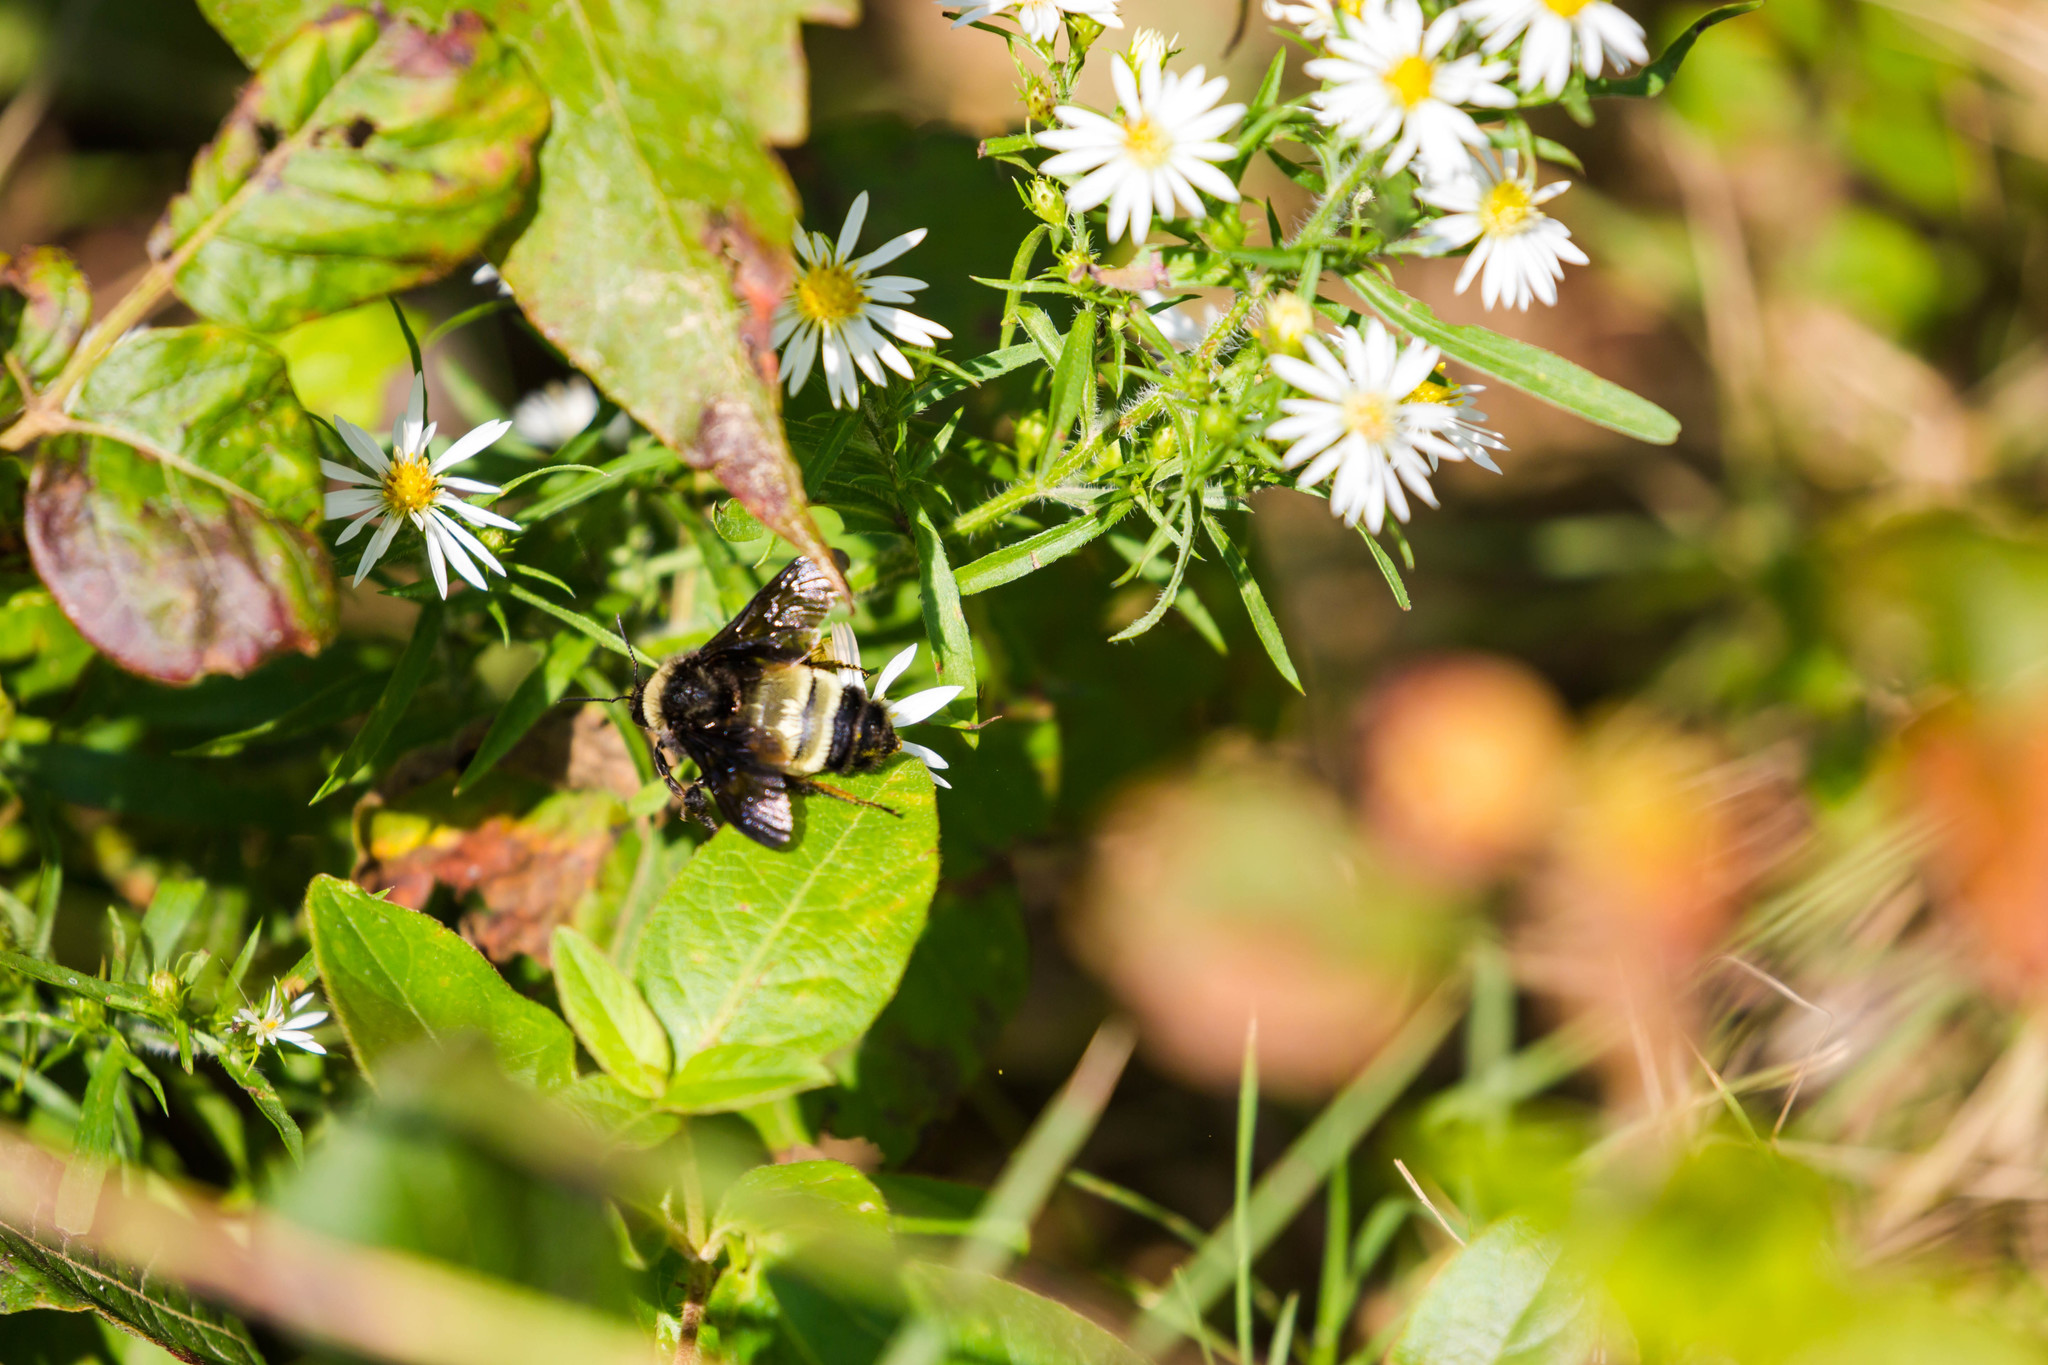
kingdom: Animalia
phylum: Arthropoda
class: Insecta
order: Hymenoptera
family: Apidae
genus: Bombus
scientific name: Bombus pensylvanicus
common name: Bumble bee
